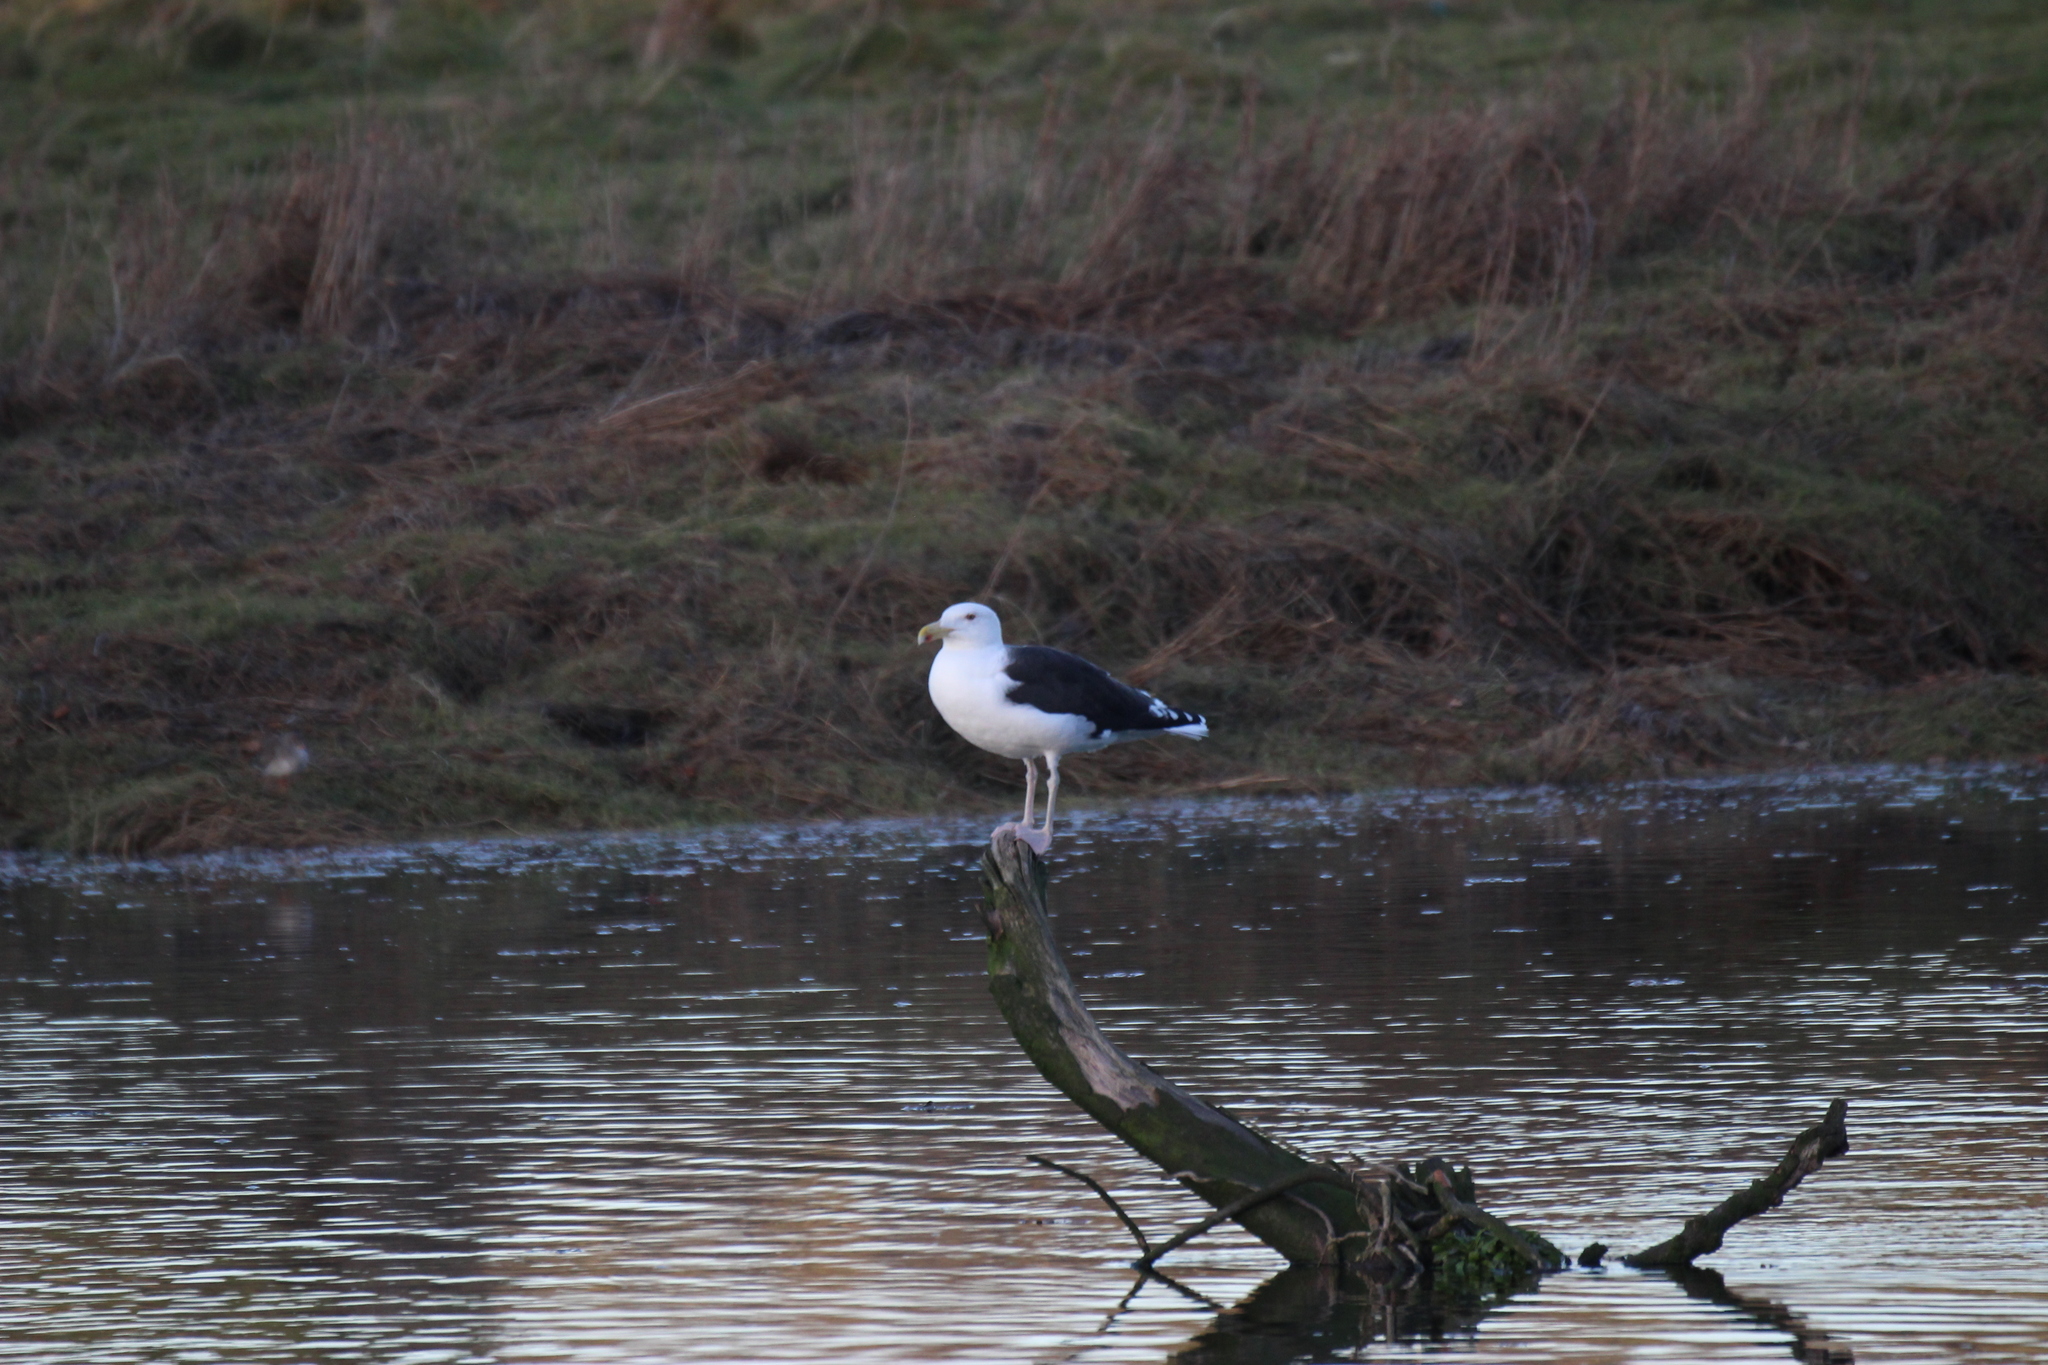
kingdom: Animalia
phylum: Chordata
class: Aves
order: Charadriiformes
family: Laridae
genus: Larus
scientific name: Larus marinus
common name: Great black-backed gull
